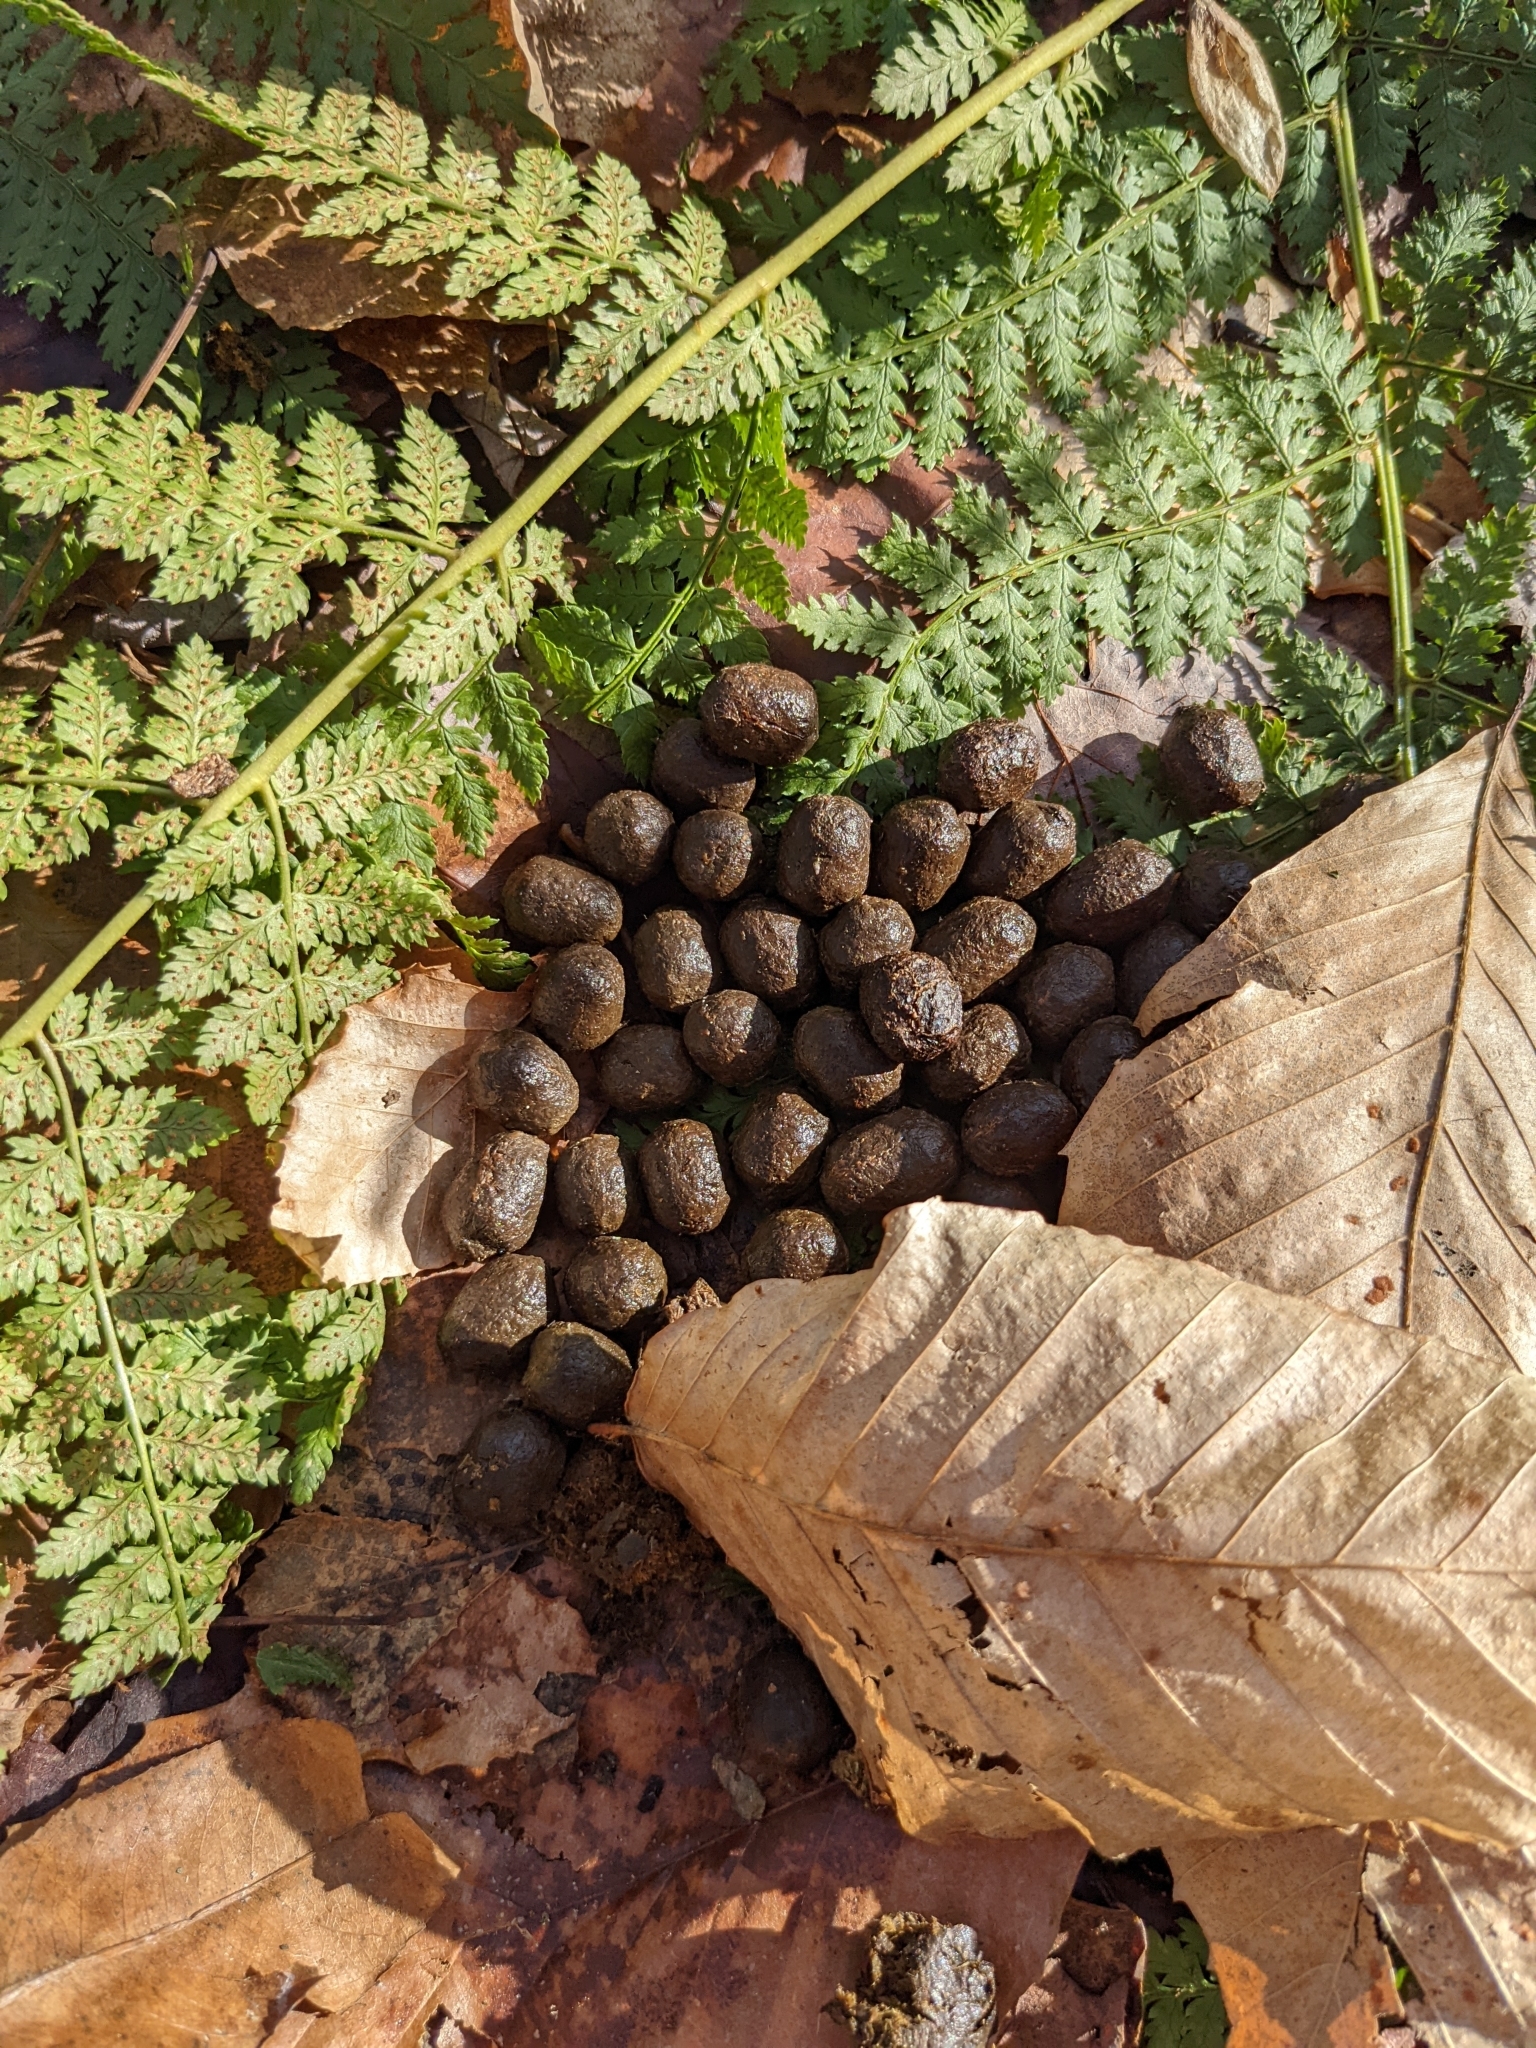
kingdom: Animalia
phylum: Chordata
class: Mammalia
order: Artiodactyla
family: Cervidae
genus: Odocoileus
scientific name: Odocoileus virginianus
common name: White-tailed deer
